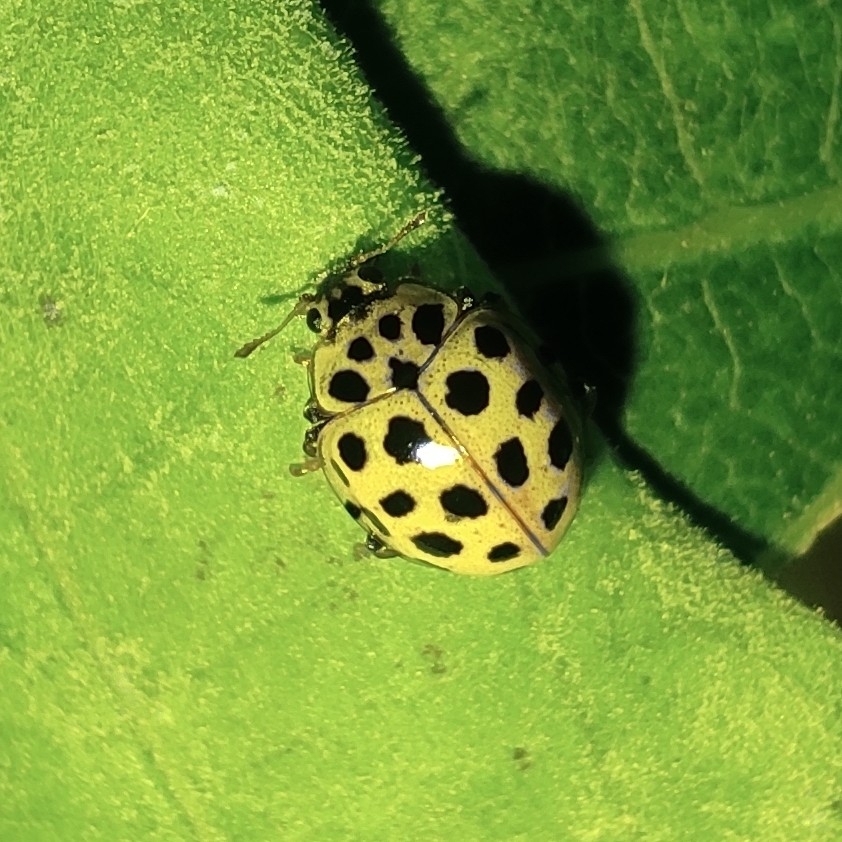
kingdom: Animalia
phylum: Arthropoda
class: Insecta
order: Coleoptera
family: Coccinellidae
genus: Psyllobora
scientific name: Psyllobora vigintiduopunctata
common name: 22-spot ladybird
